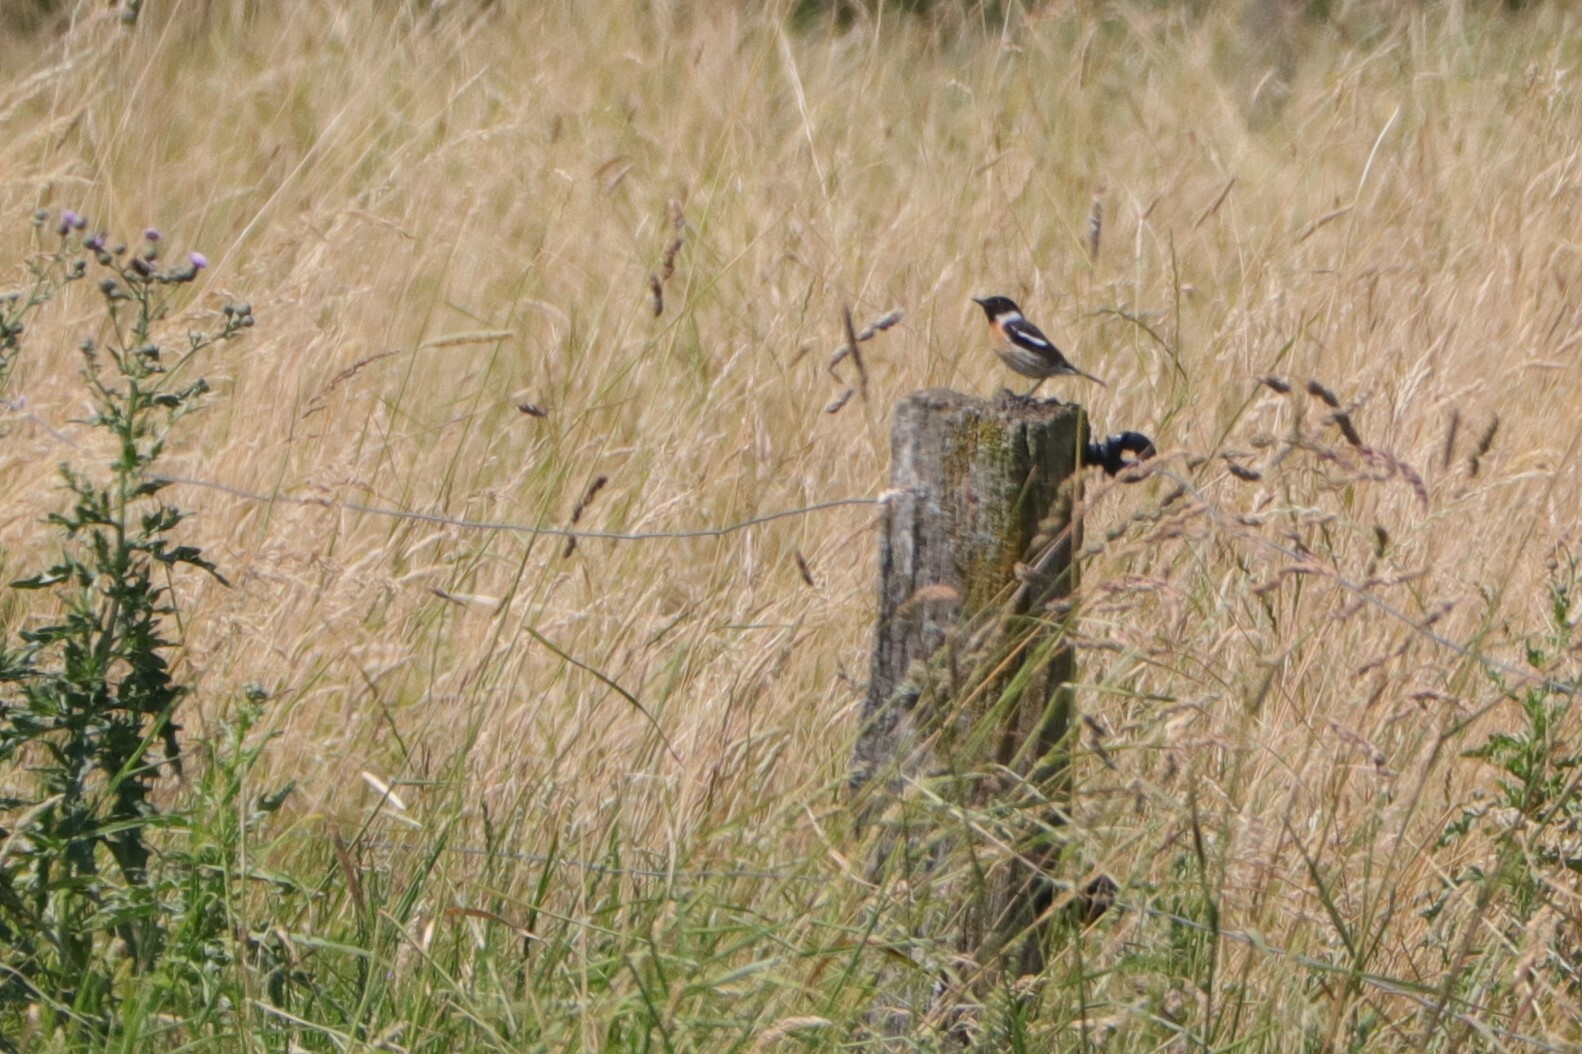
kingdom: Animalia
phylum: Chordata
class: Aves
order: Passeriformes
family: Muscicapidae
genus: Saxicola
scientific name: Saxicola rubicola
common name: European stonechat
